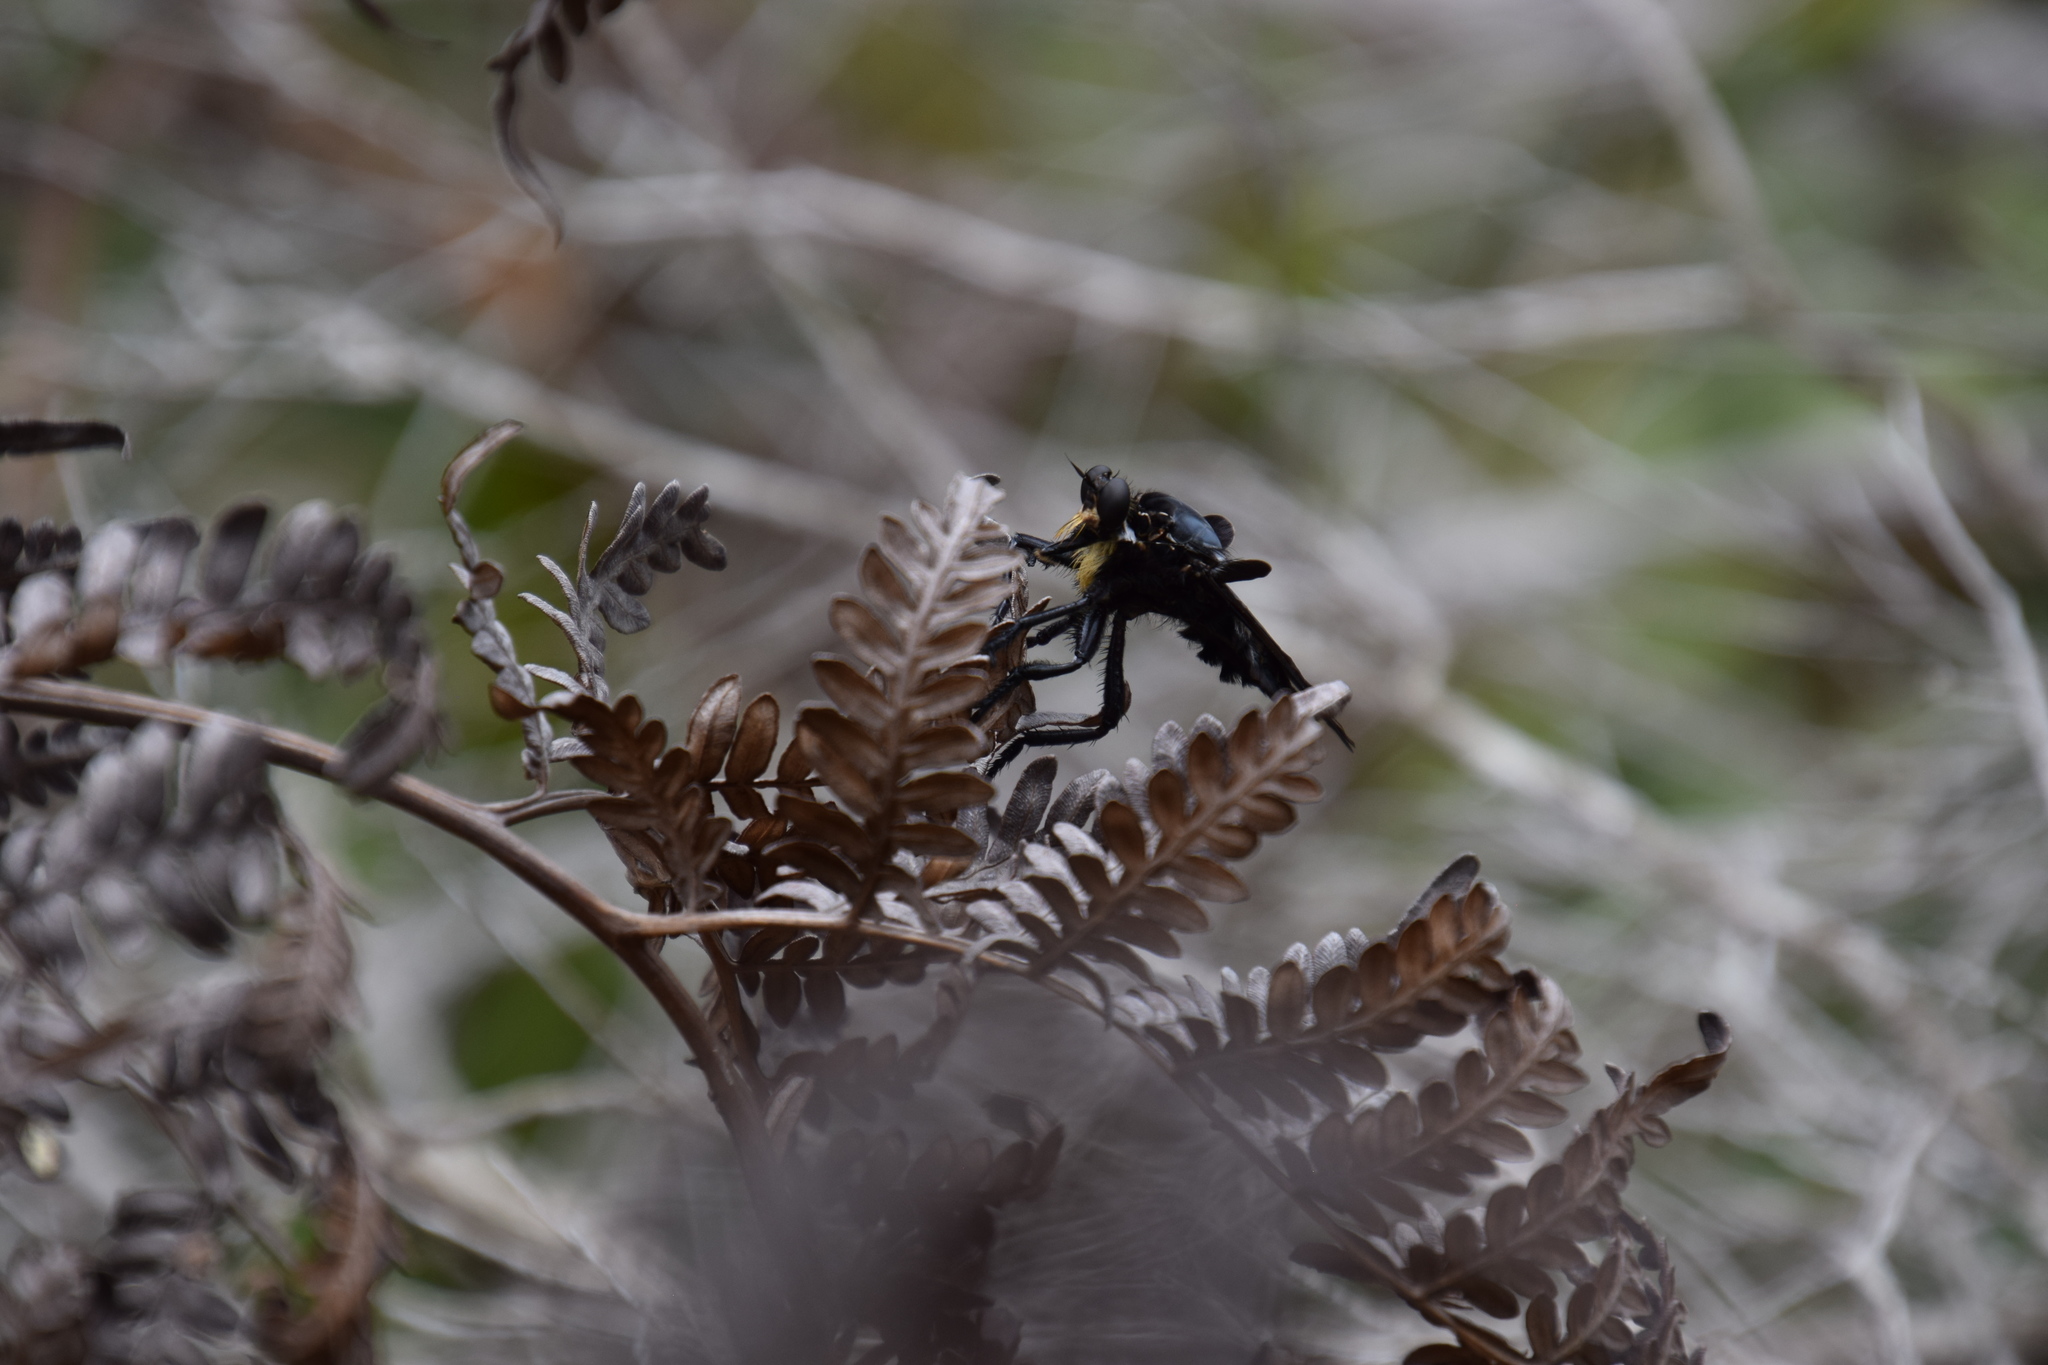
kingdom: Animalia
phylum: Arthropoda
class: Insecta
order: Diptera
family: Asilidae
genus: Blepharotes
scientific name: Blepharotes splendidissimus
